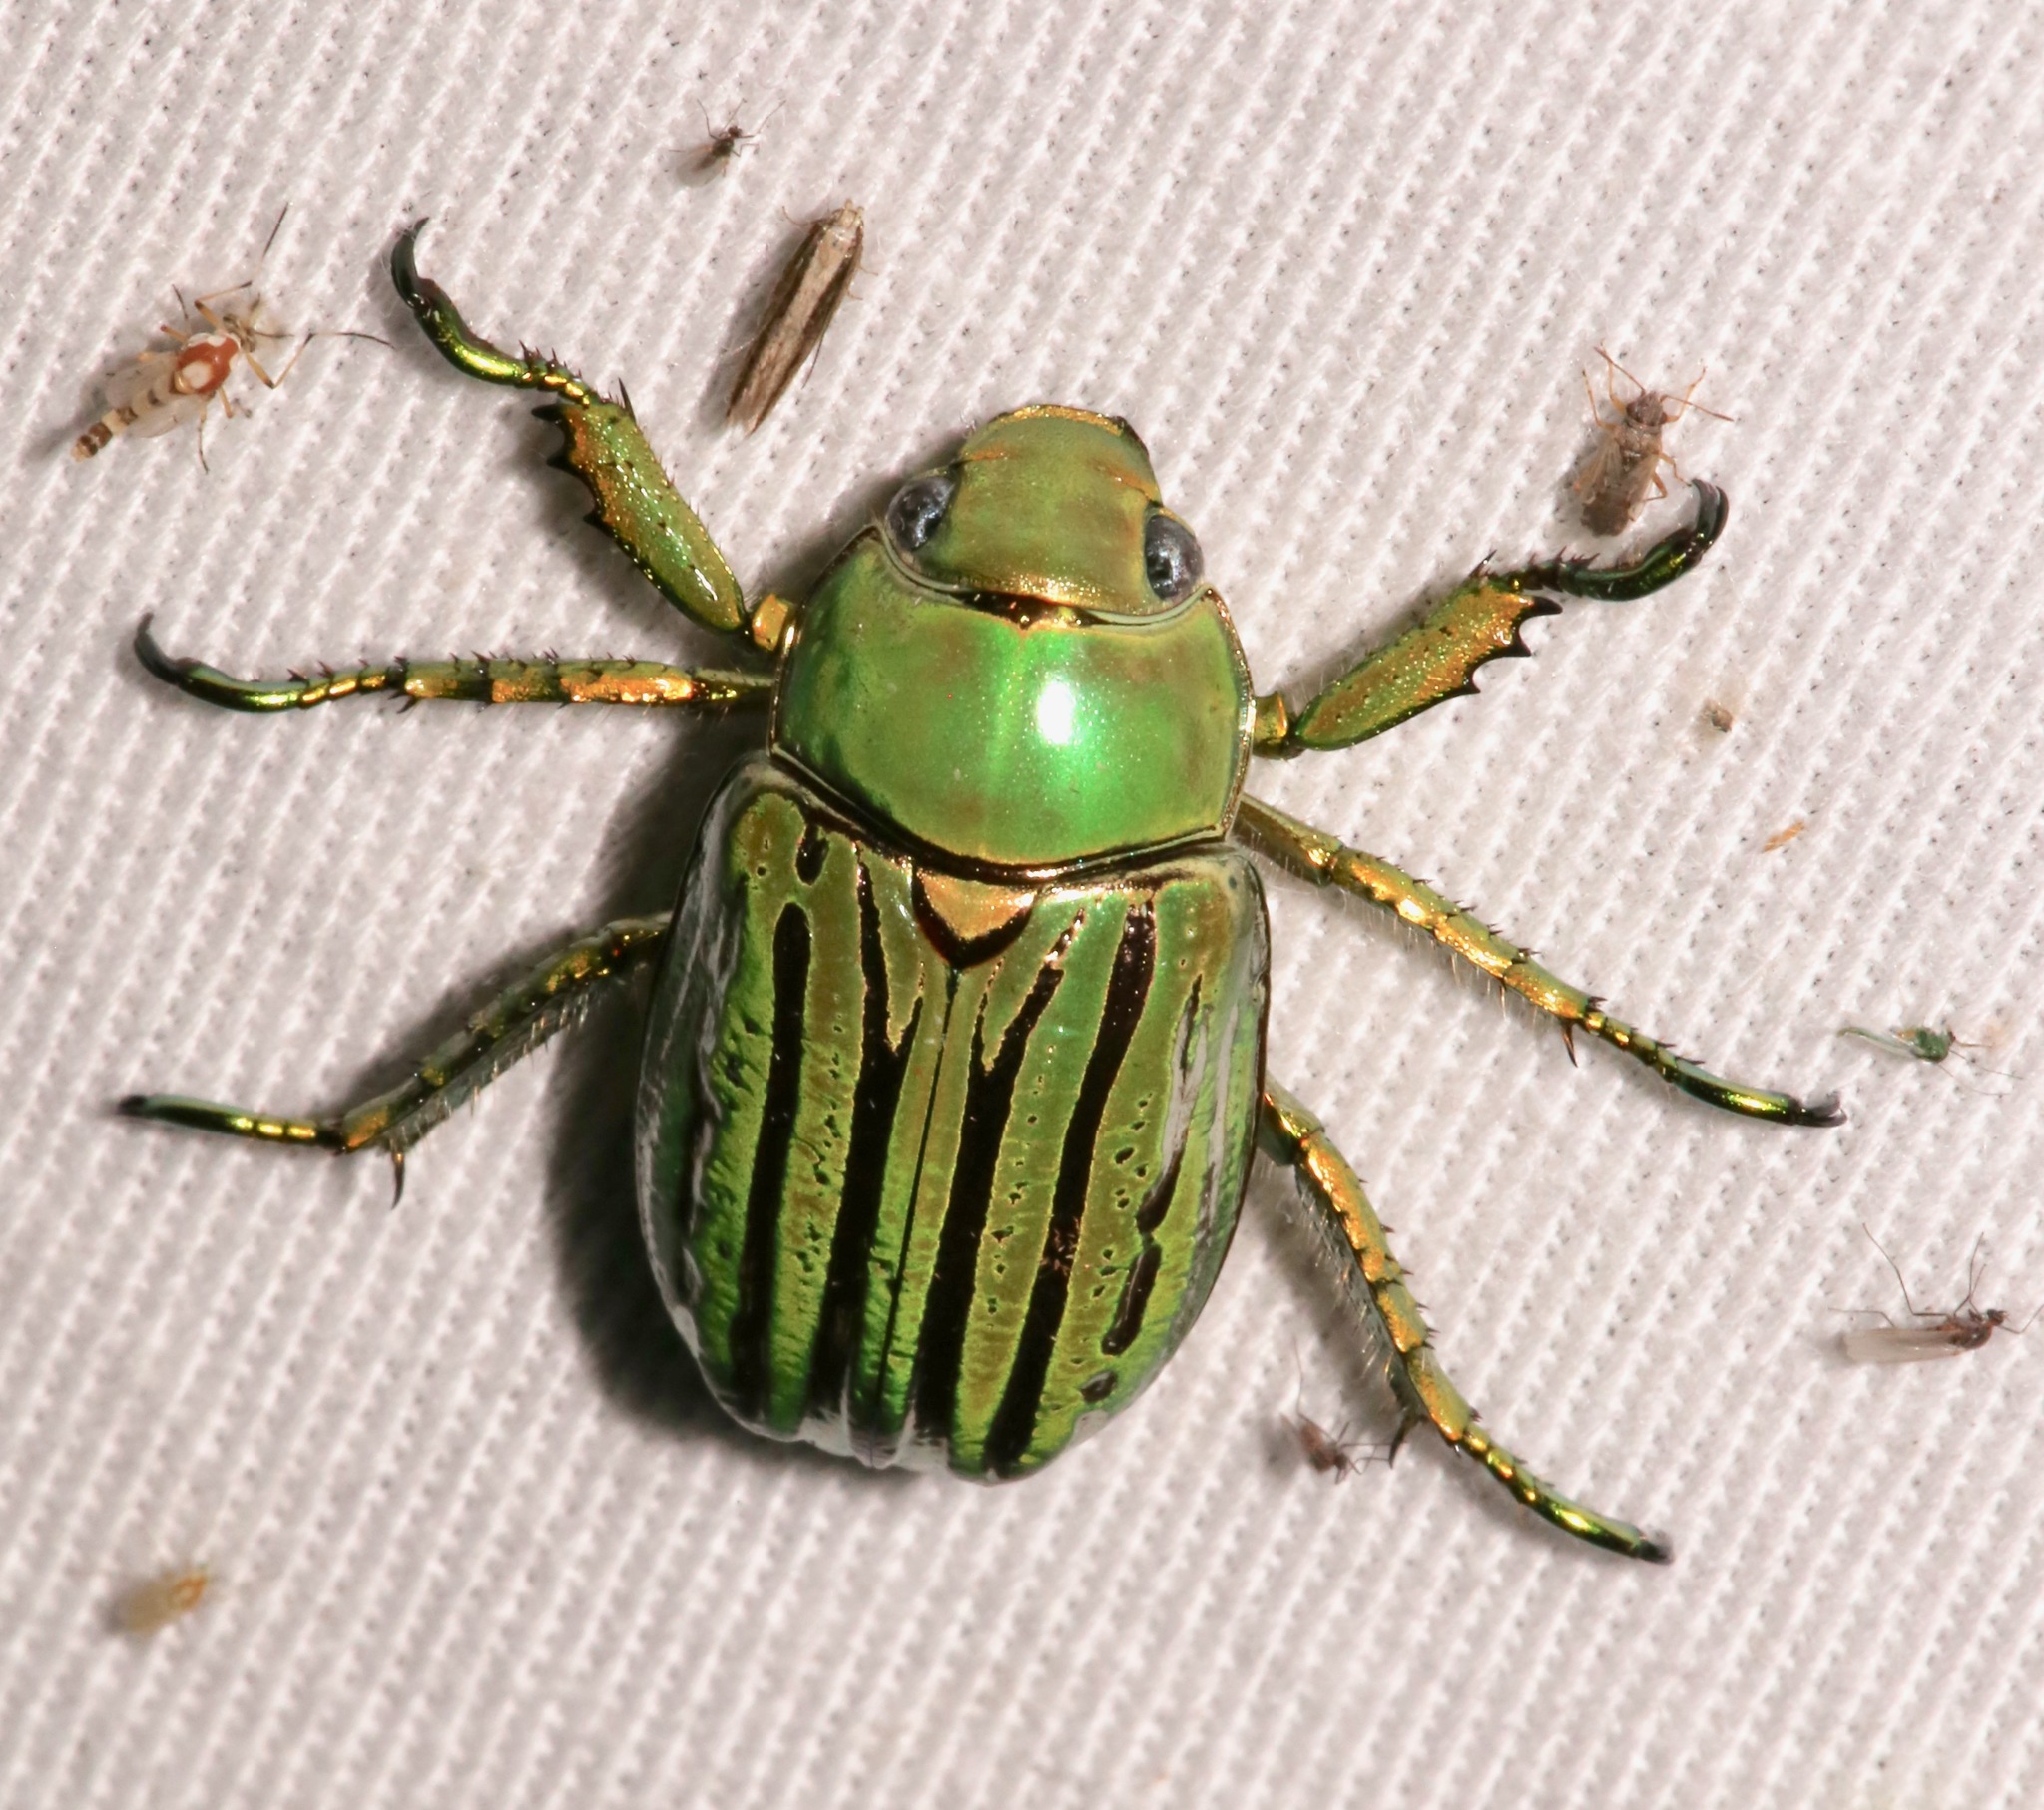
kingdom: Animalia
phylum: Arthropoda
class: Insecta
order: Coleoptera
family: Scarabaeidae
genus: Chrysina
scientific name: Chrysina gloriosa
